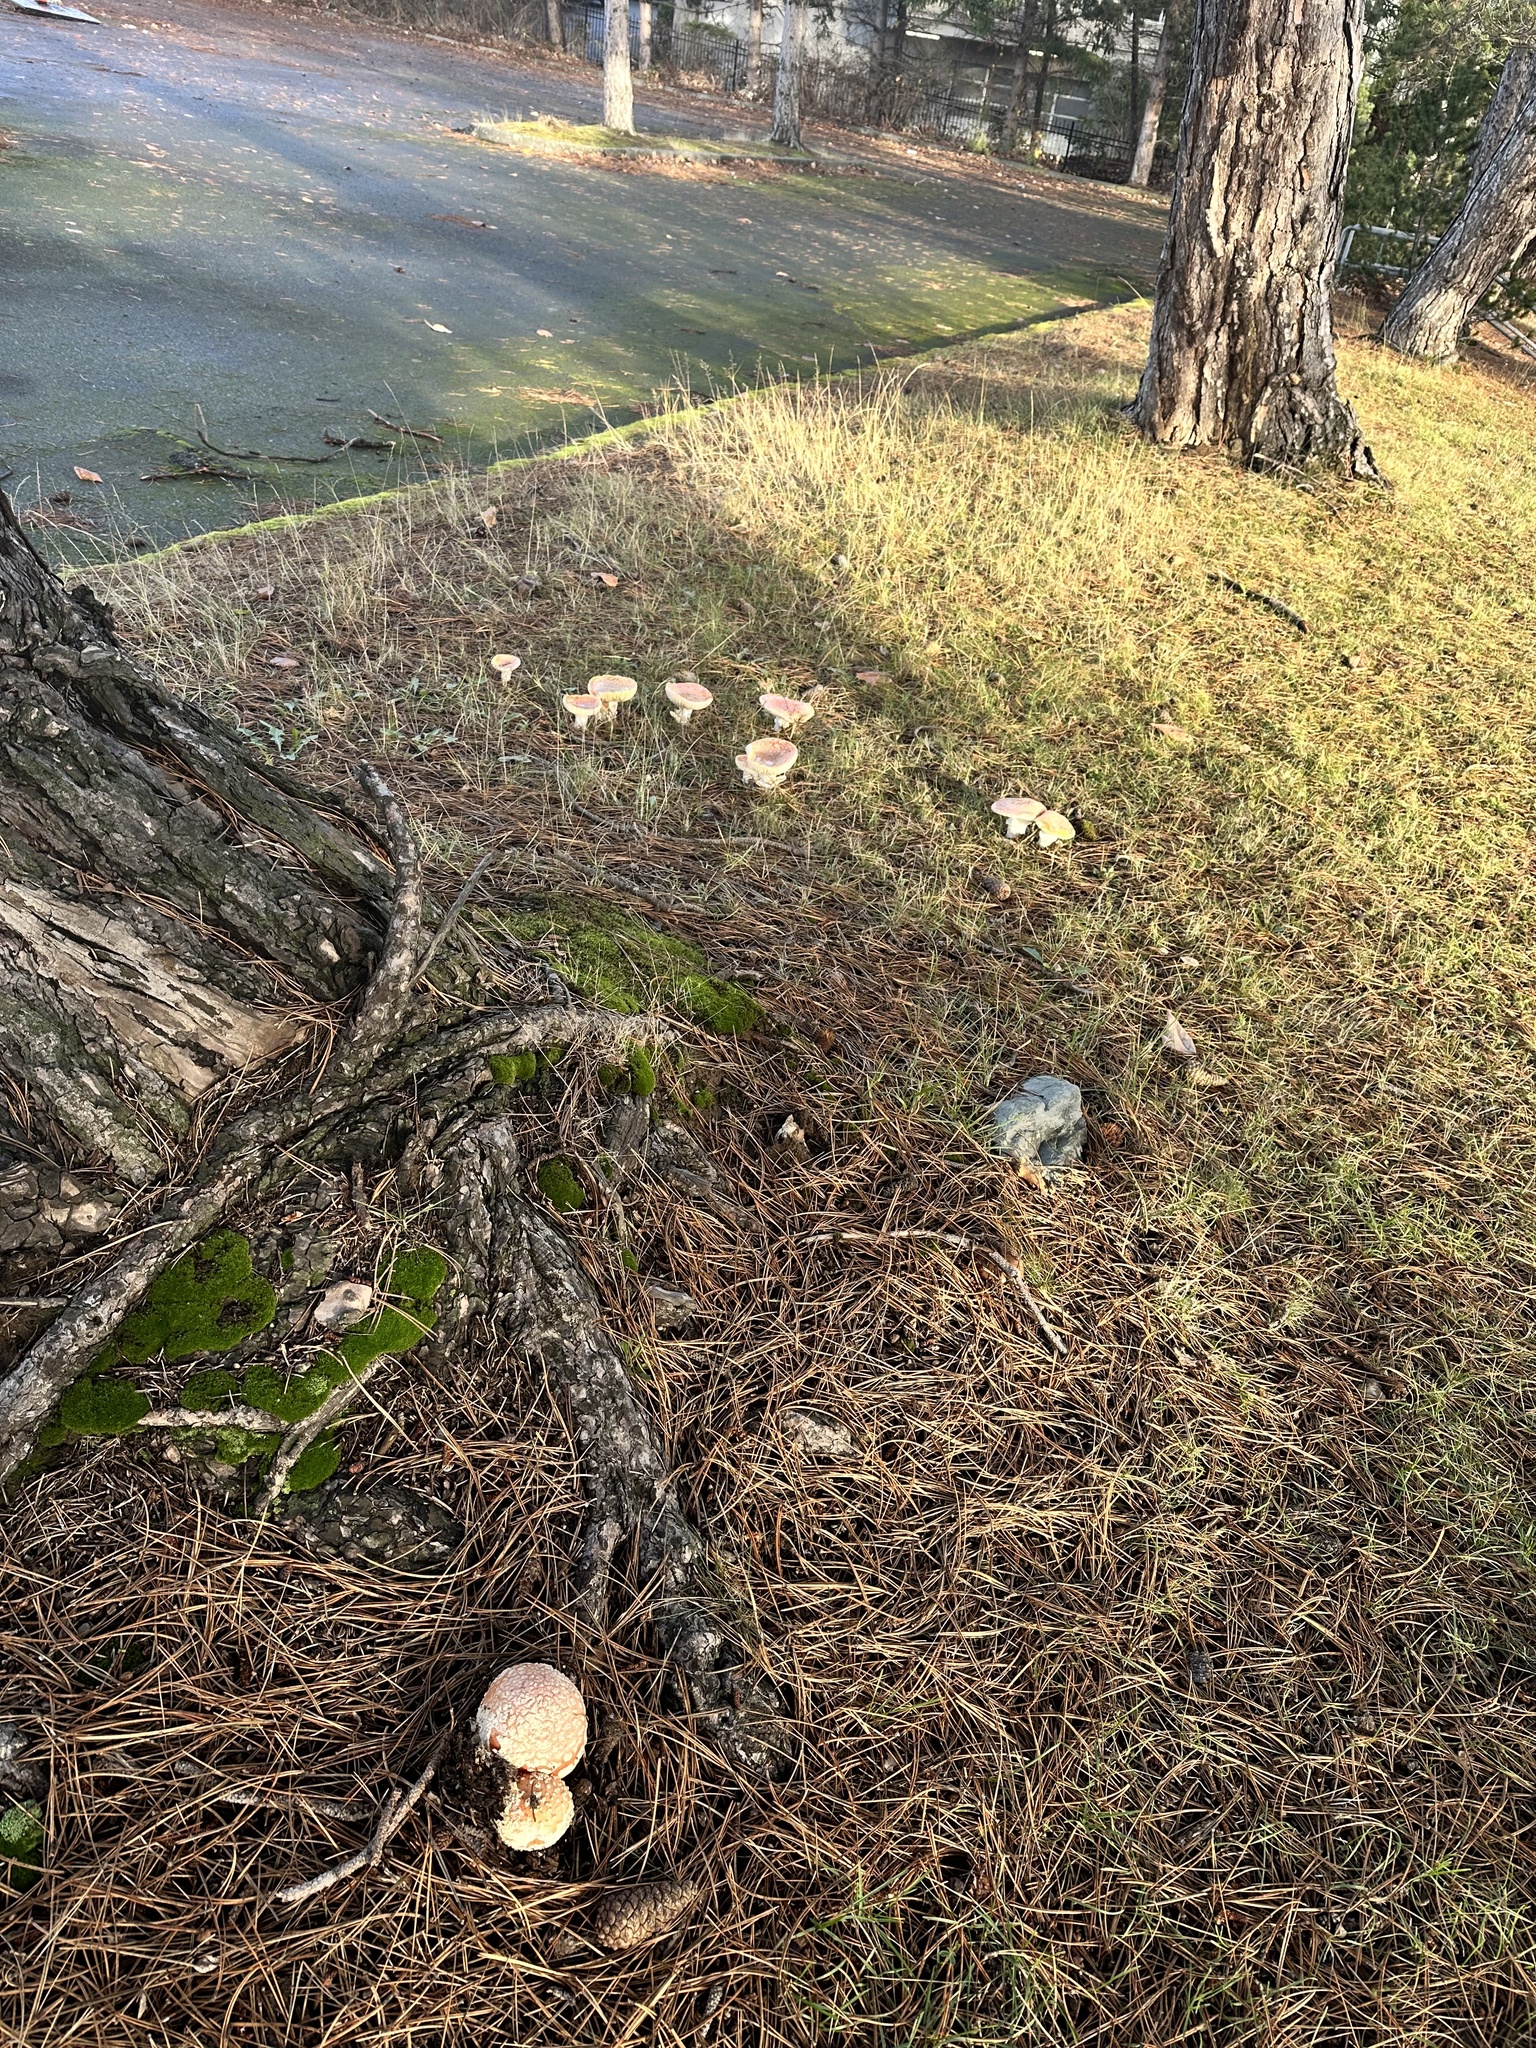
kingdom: Fungi
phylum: Basidiomycota
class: Agaricomycetes
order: Agaricales
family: Amanitaceae
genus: Amanita
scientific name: Amanita muscaria
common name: Fly agaric
